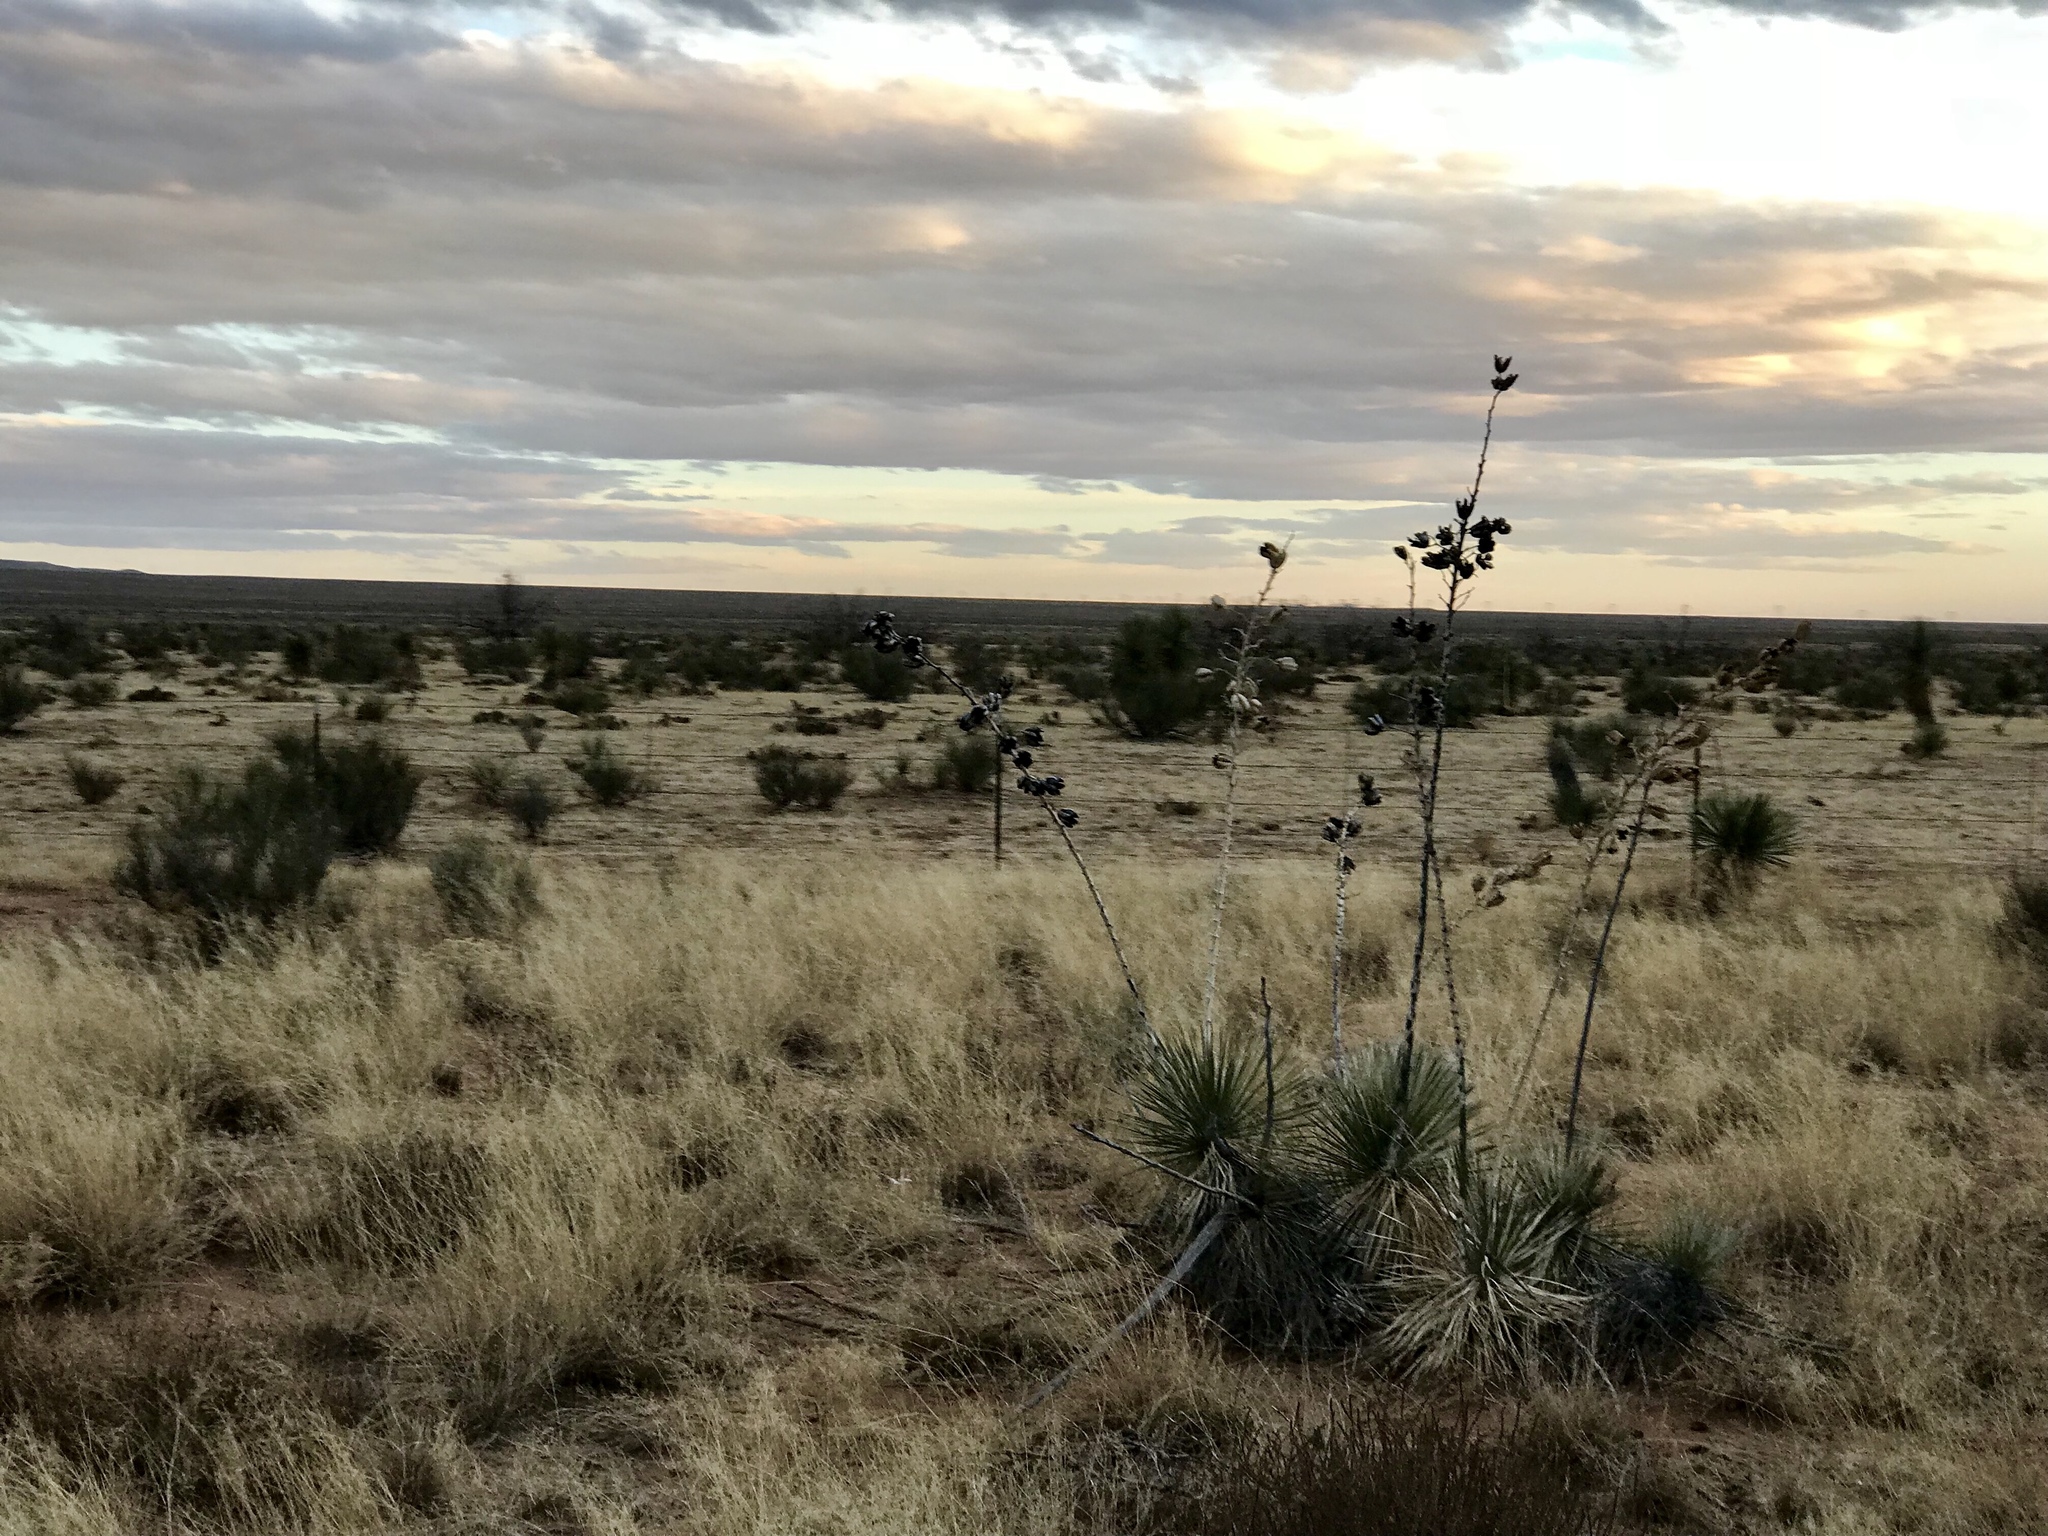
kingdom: Plantae
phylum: Tracheophyta
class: Liliopsida
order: Asparagales
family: Asparagaceae
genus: Yucca
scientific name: Yucca elata
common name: Palmella
